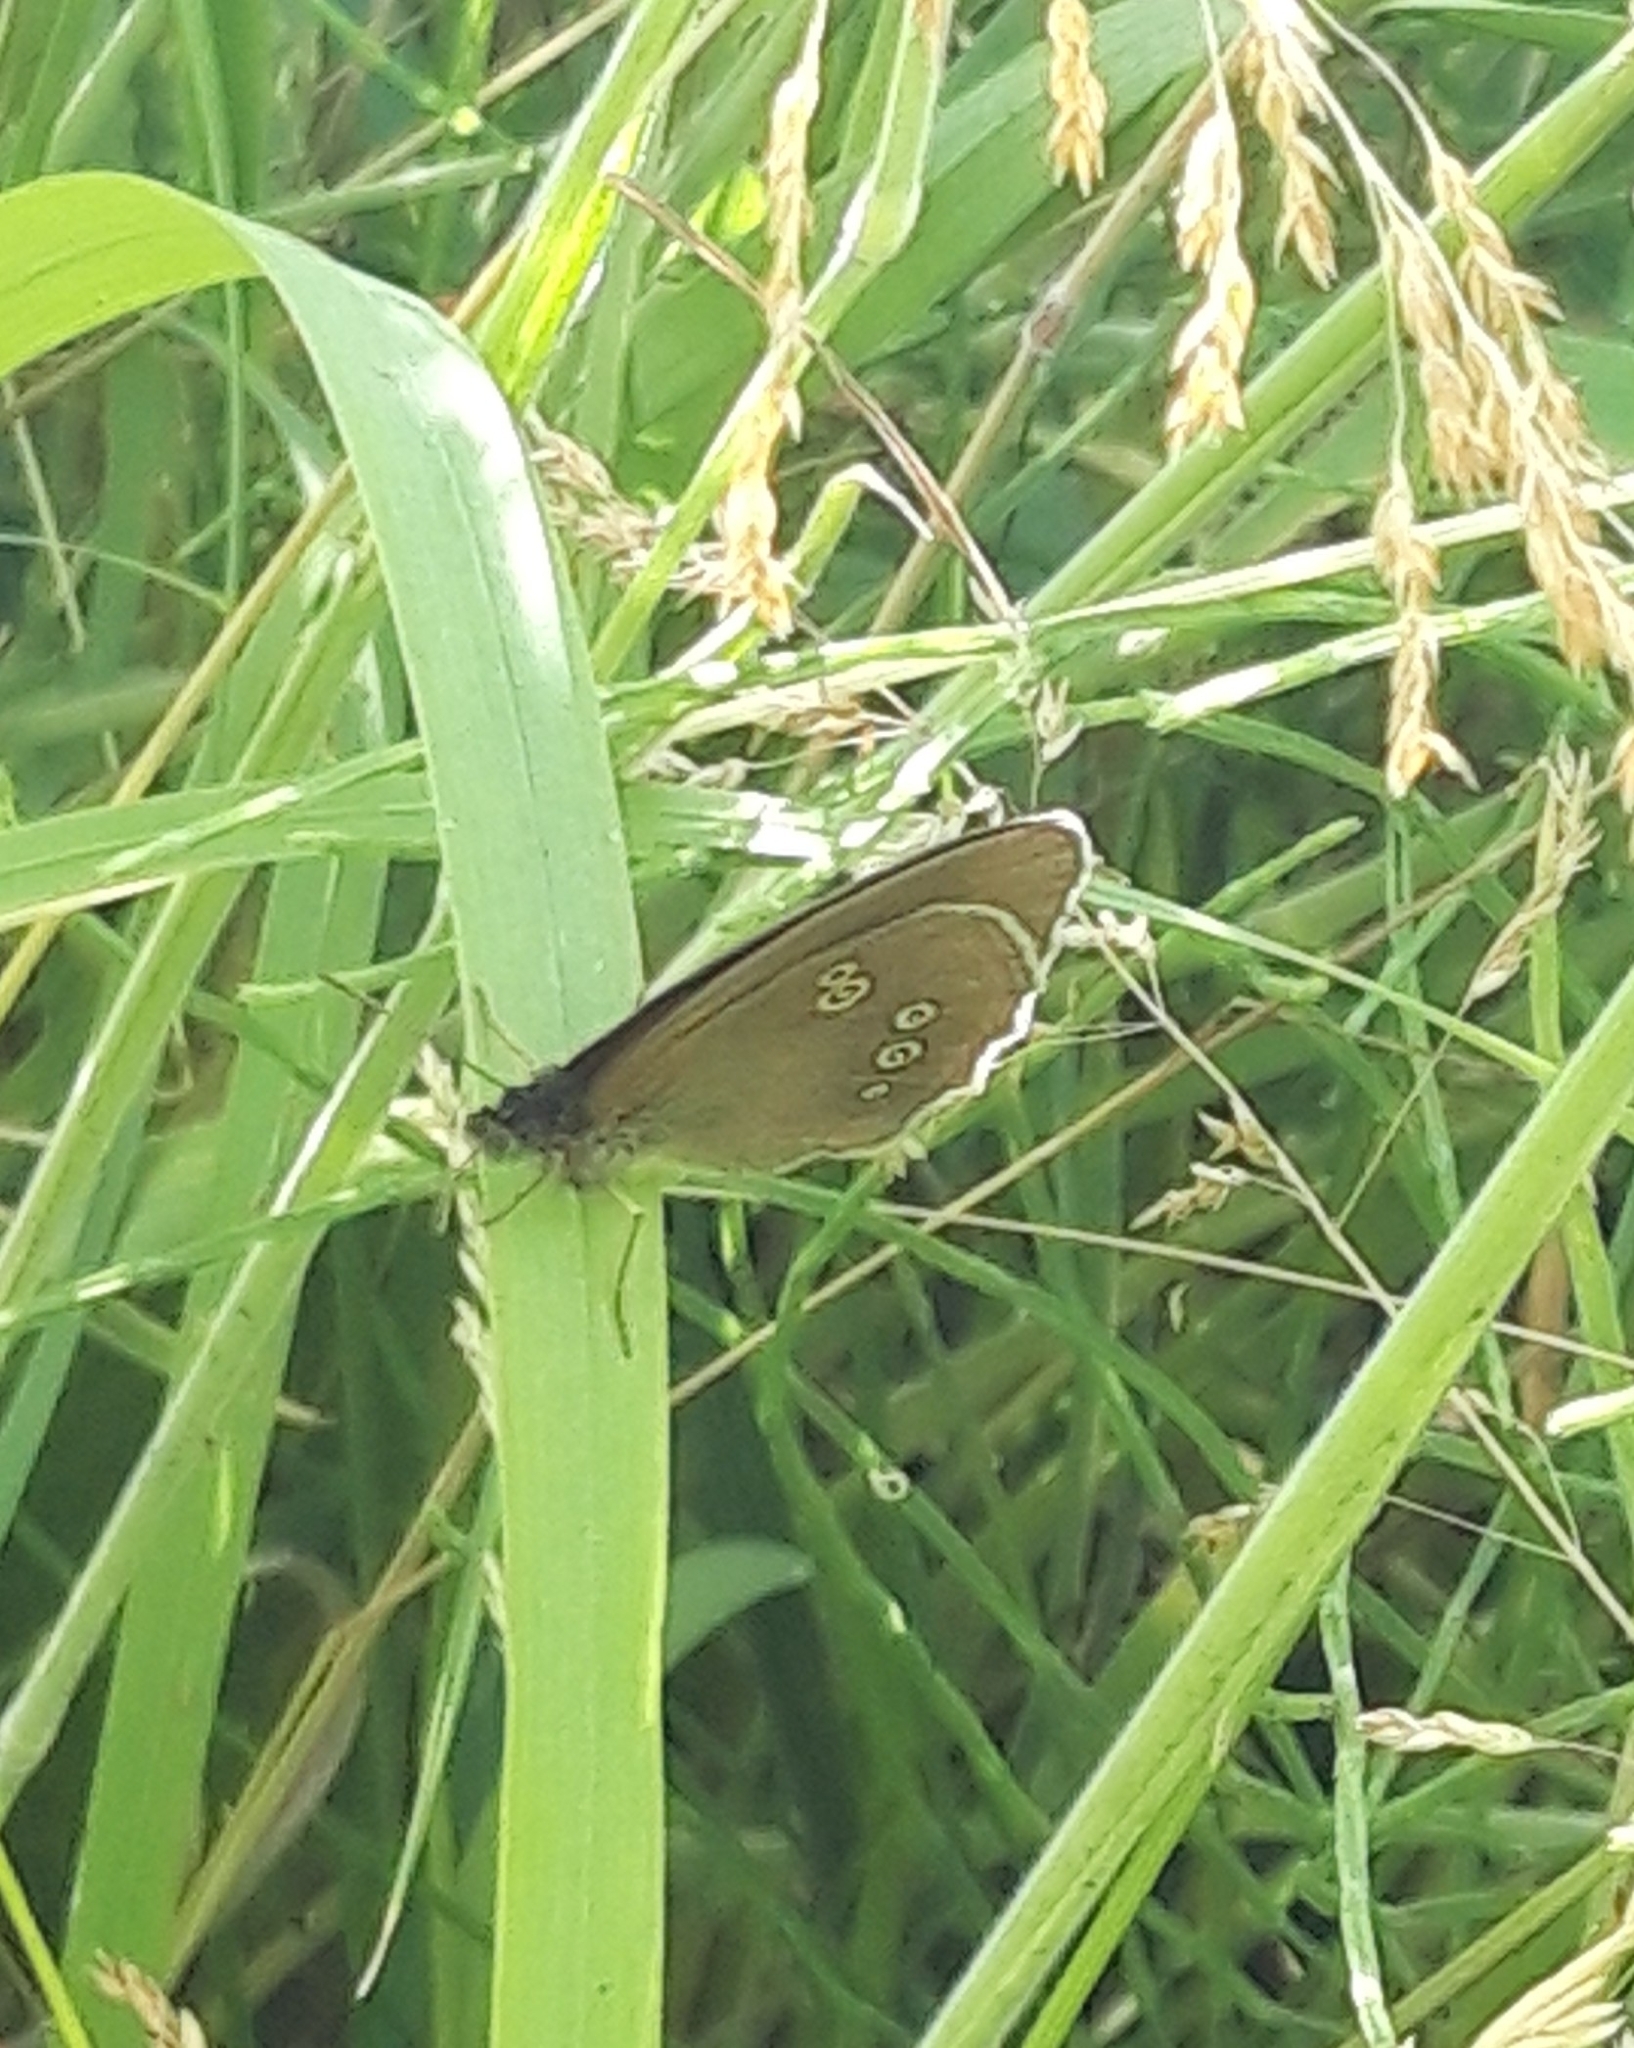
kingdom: Animalia
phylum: Arthropoda
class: Insecta
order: Lepidoptera
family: Nymphalidae
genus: Aphantopus
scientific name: Aphantopus hyperantus
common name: Ringlet
